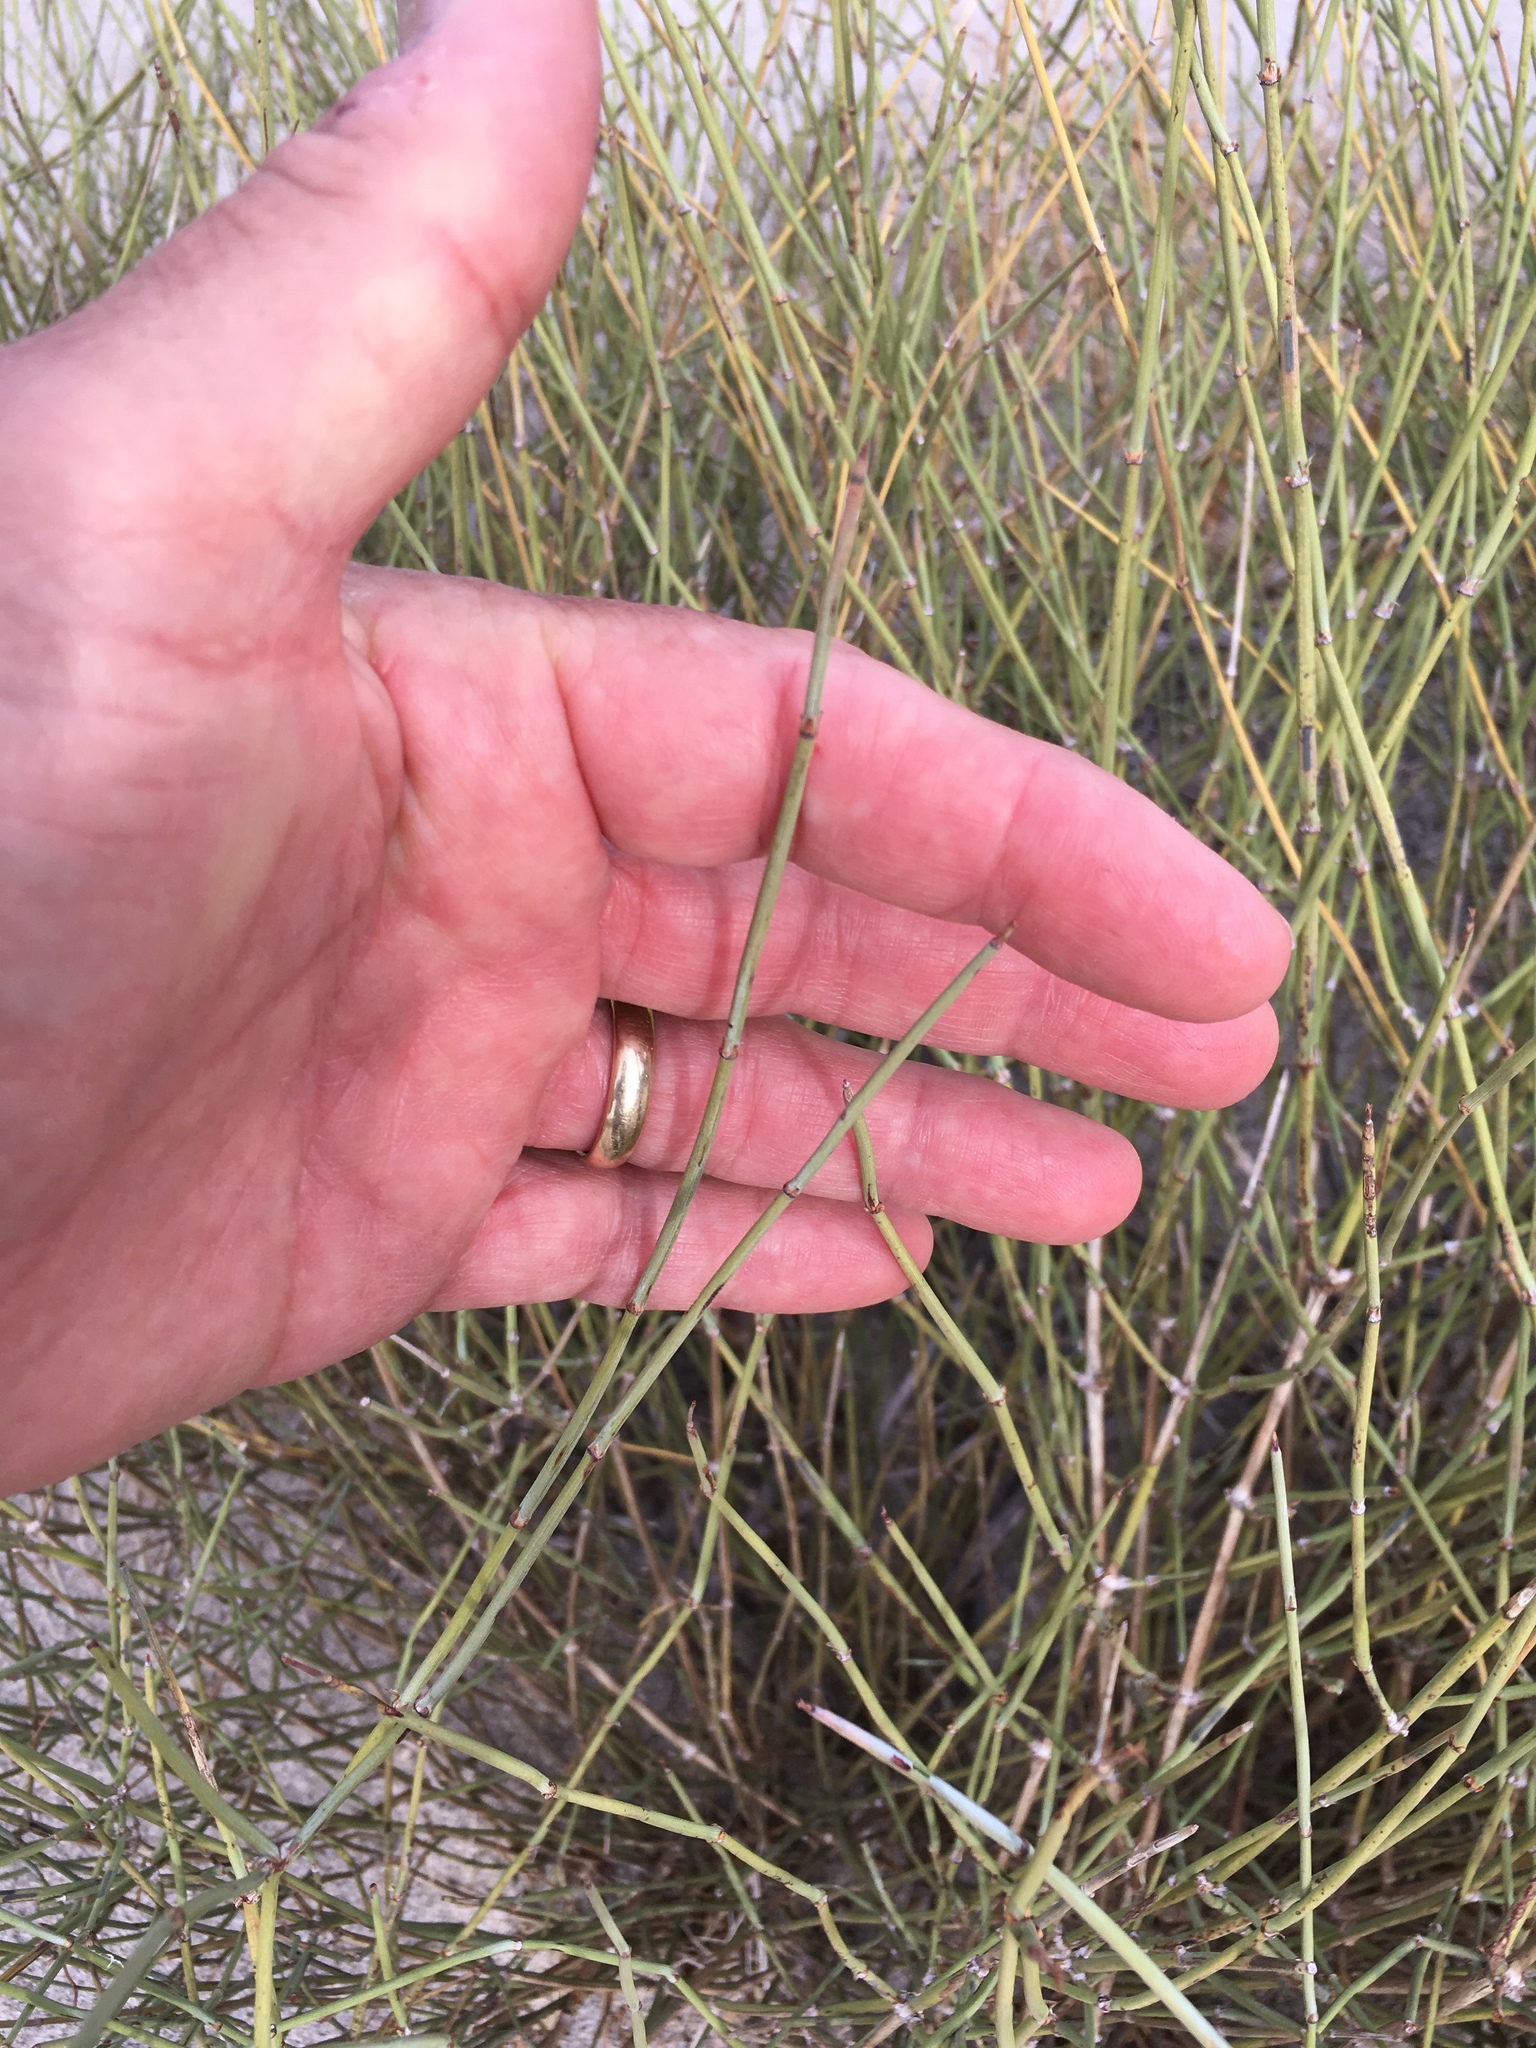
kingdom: Plantae
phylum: Tracheophyta
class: Gnetopsida
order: Ephedrales
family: Ephedraceae
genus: Ephedra
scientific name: Ephedra californica
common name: California ephedra
